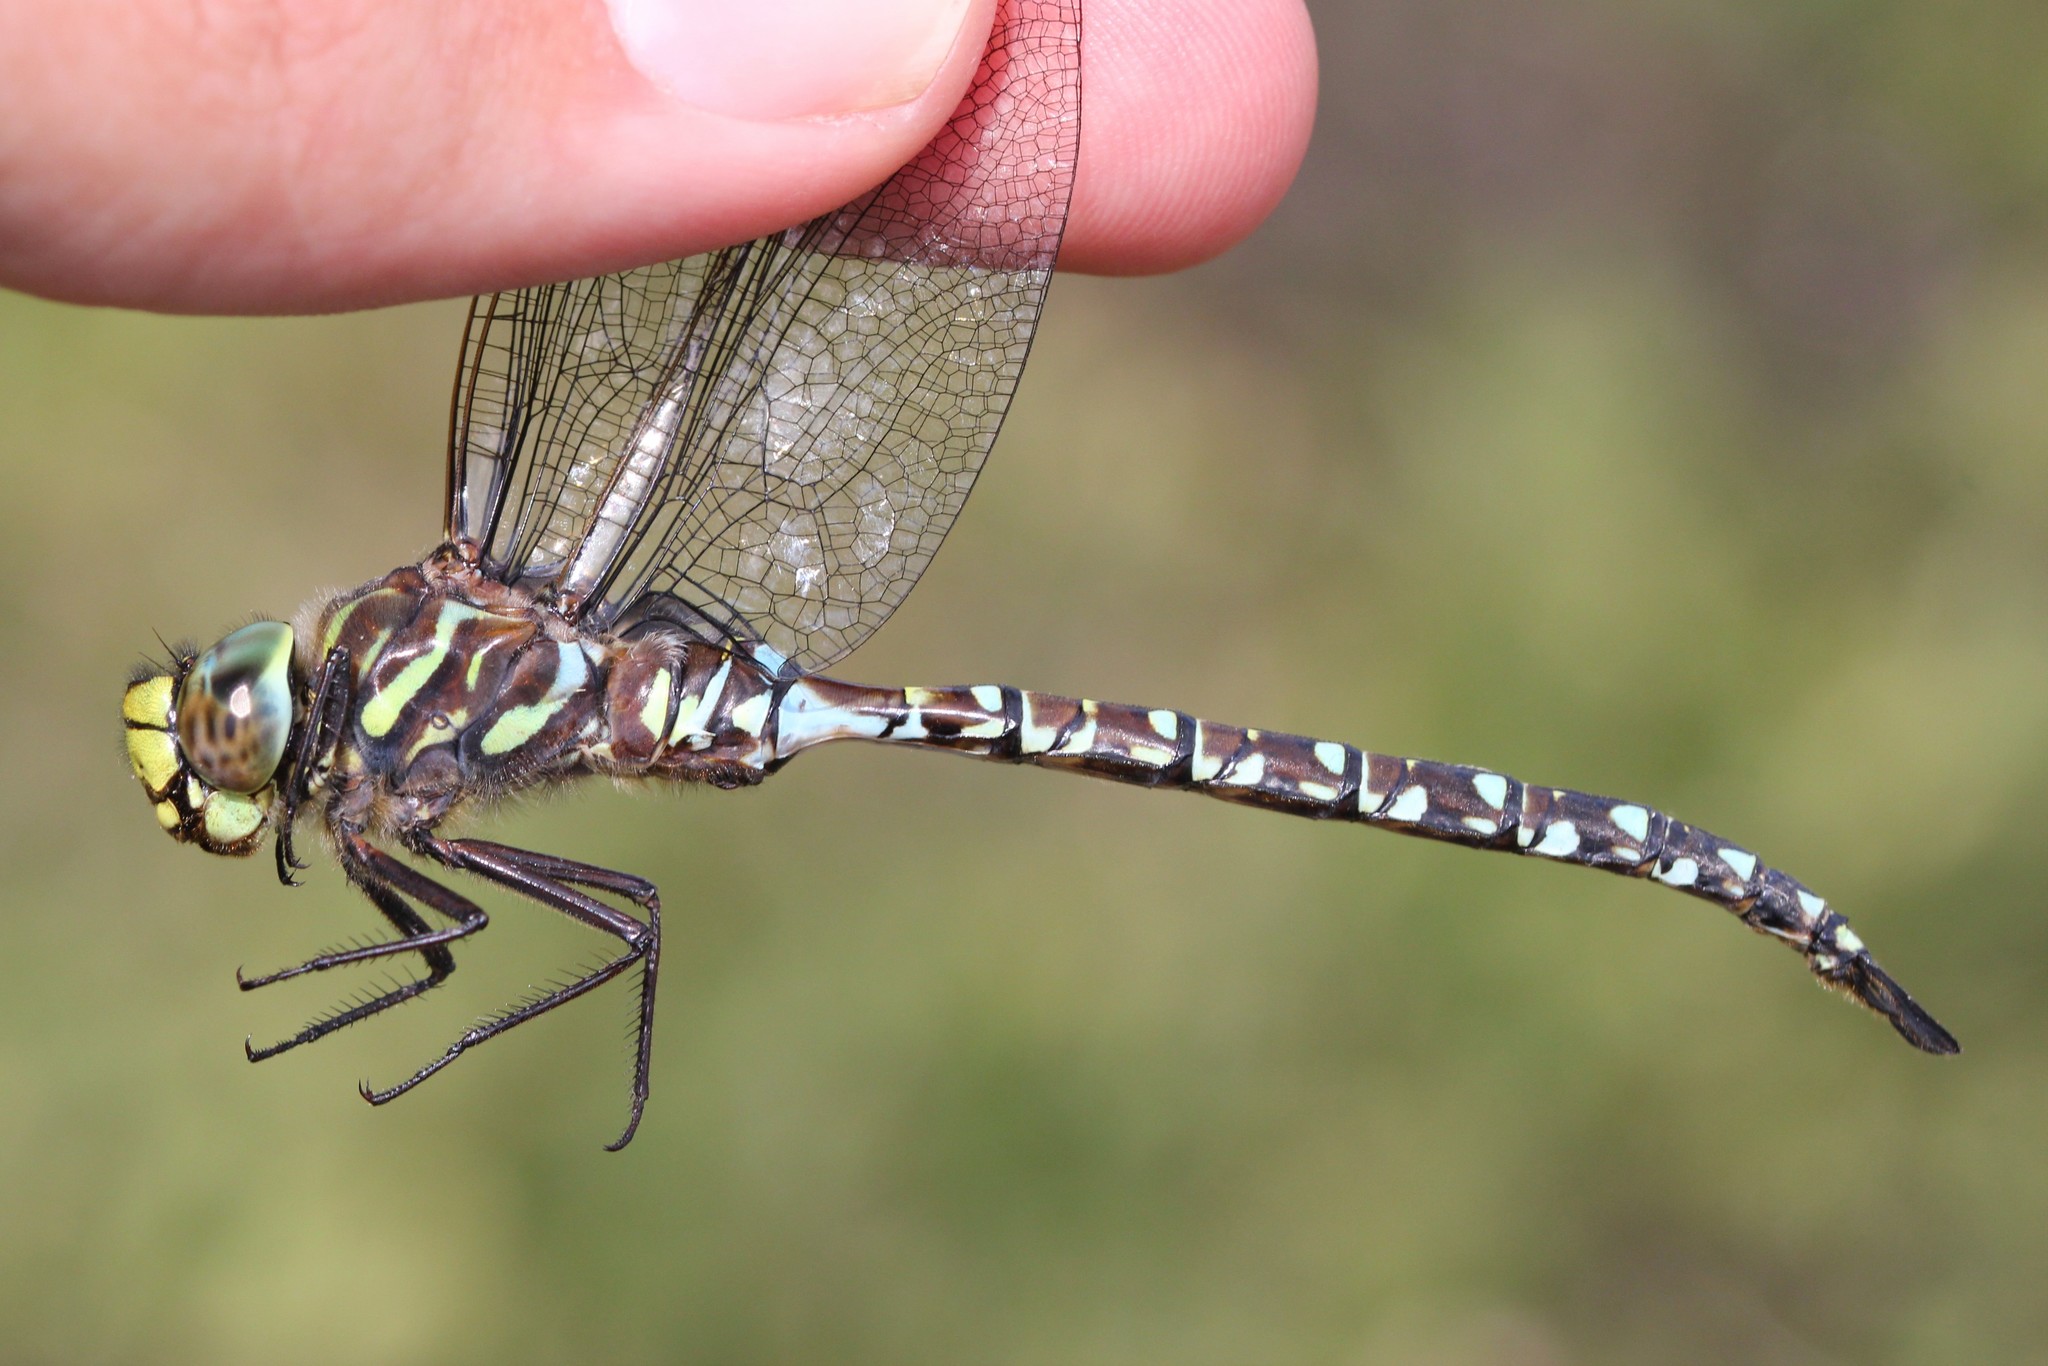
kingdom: Animalia
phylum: Arthropoda
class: Insecta
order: Odonata
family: Aeshnidae
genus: Aeshna
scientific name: Aeshna subarctica
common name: Subarctic darner
